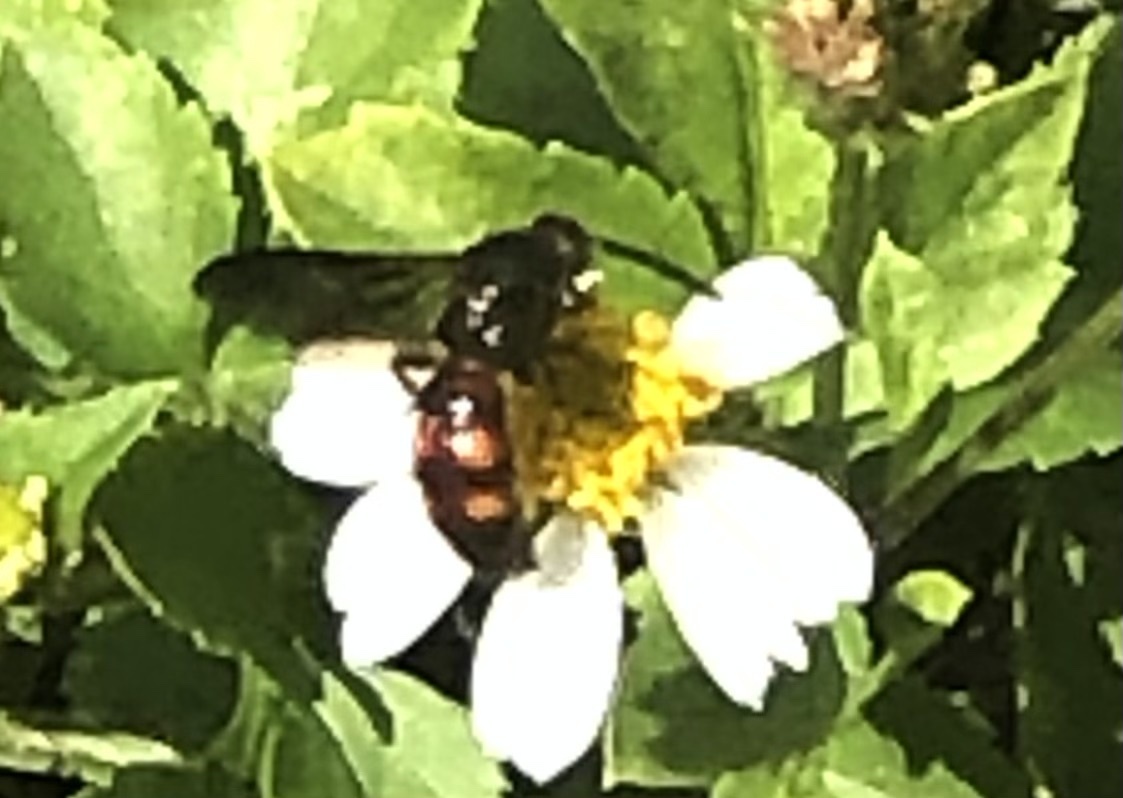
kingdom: Animalia
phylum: Arthropoda
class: Insecta
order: Hymenoptera
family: Scoliidae
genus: Scolia
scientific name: Scolia nobilitata
